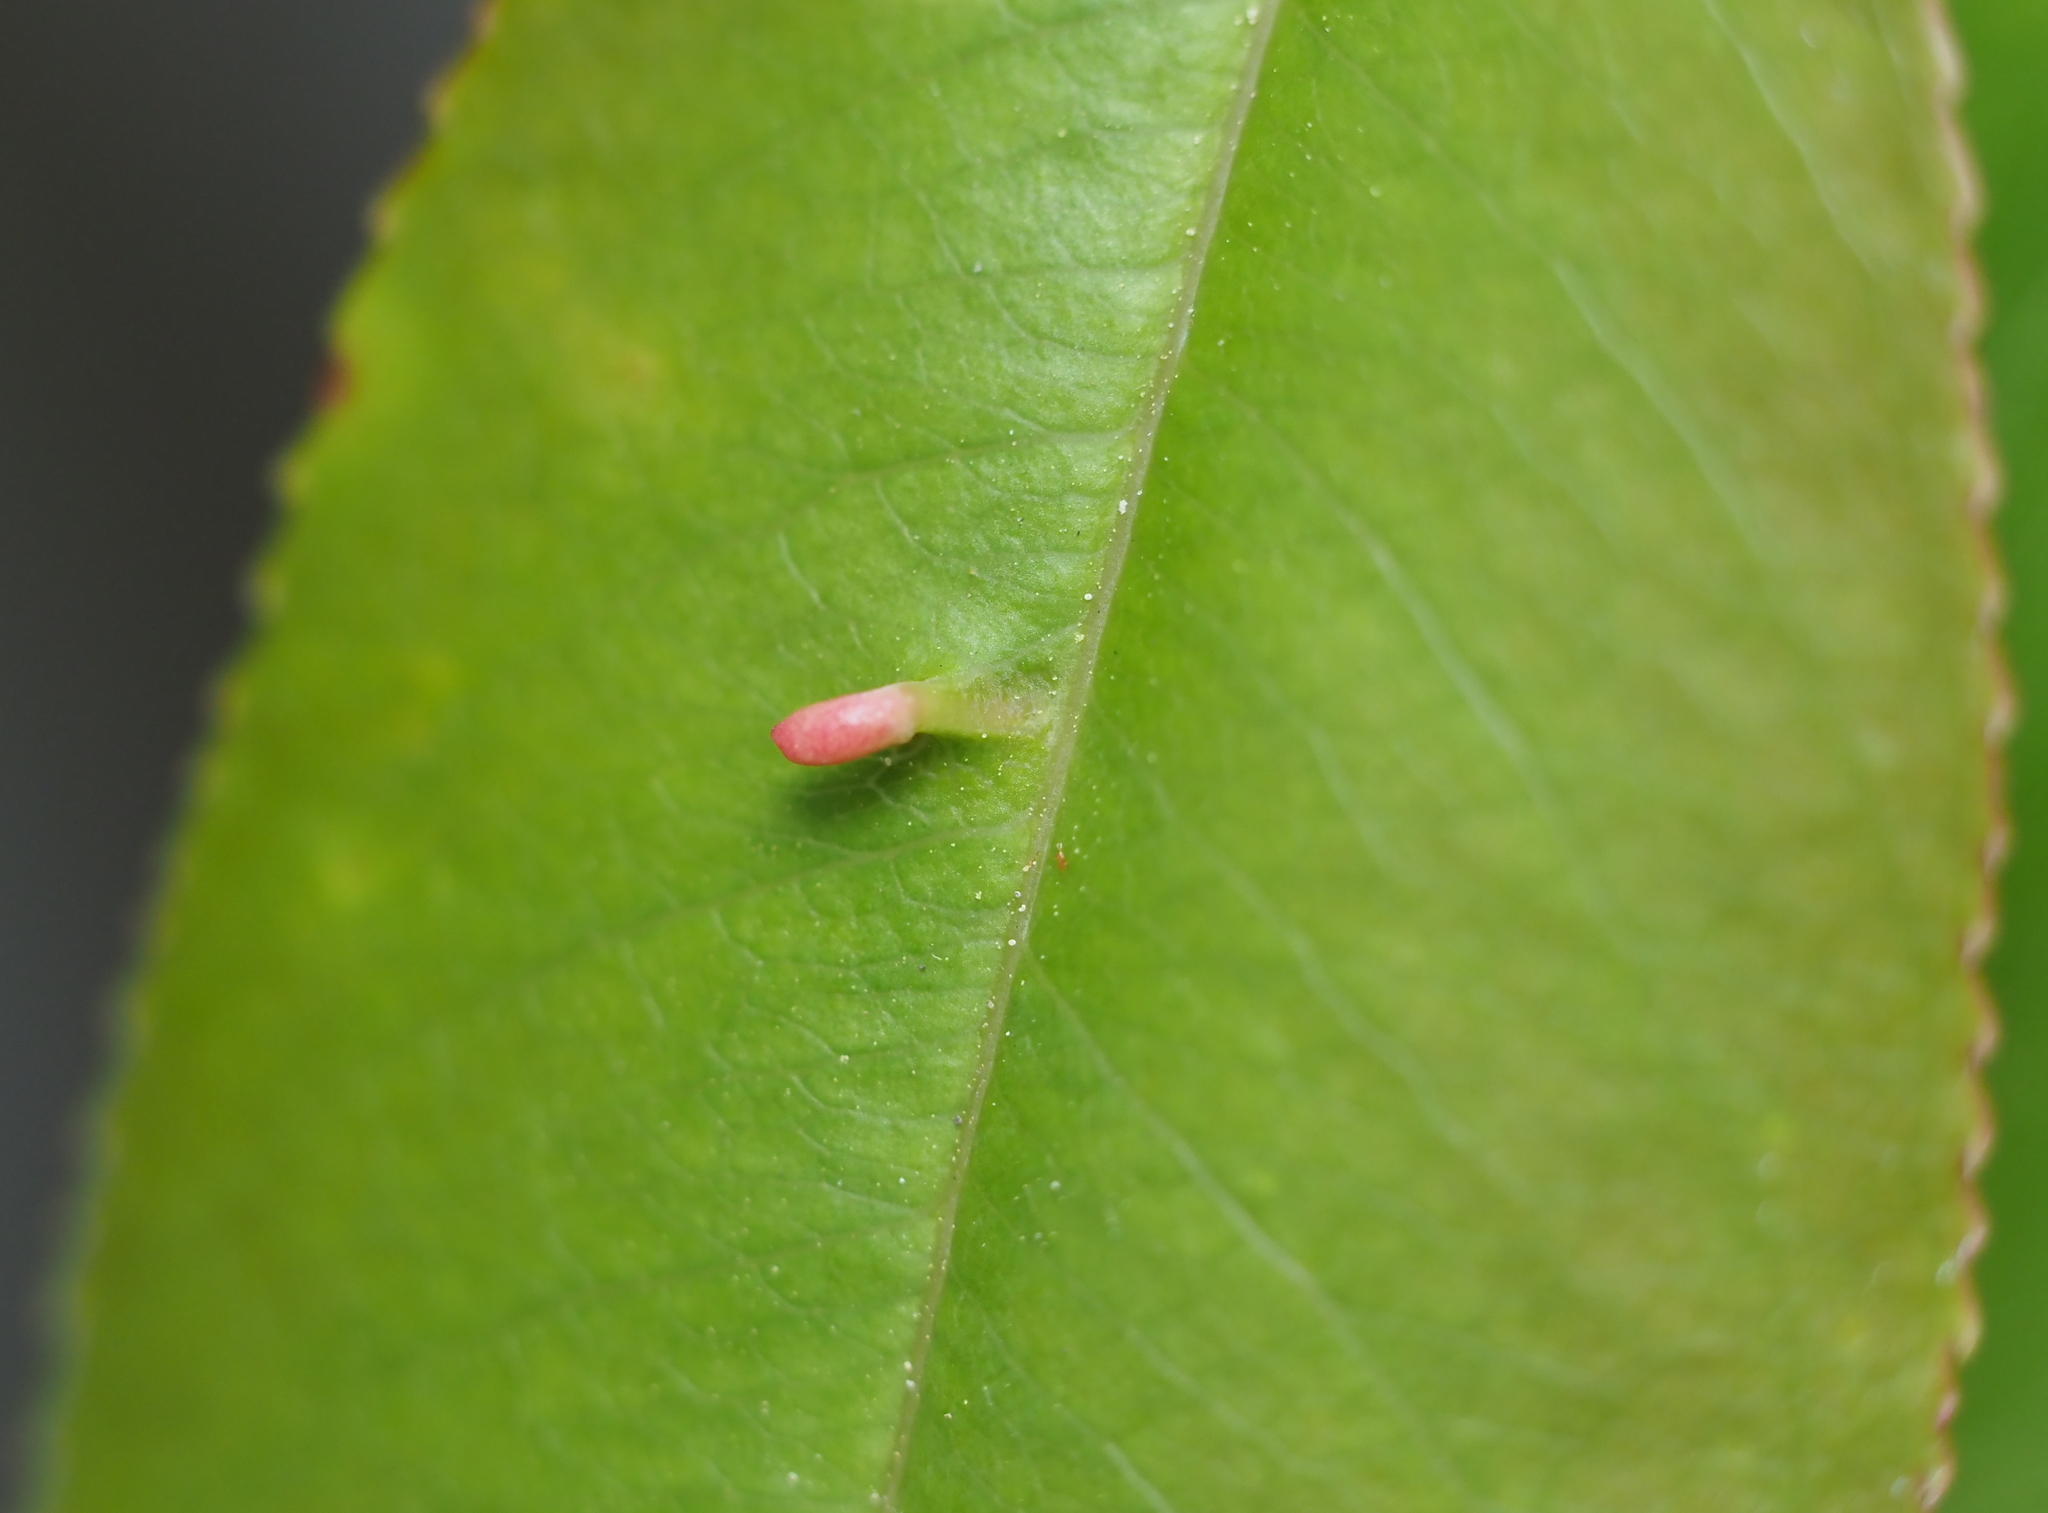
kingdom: Animalia
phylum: Arthropoda
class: Arachnida
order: Trombidiformes
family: Eriophyidae
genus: Eriophyes
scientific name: Eriophyes
